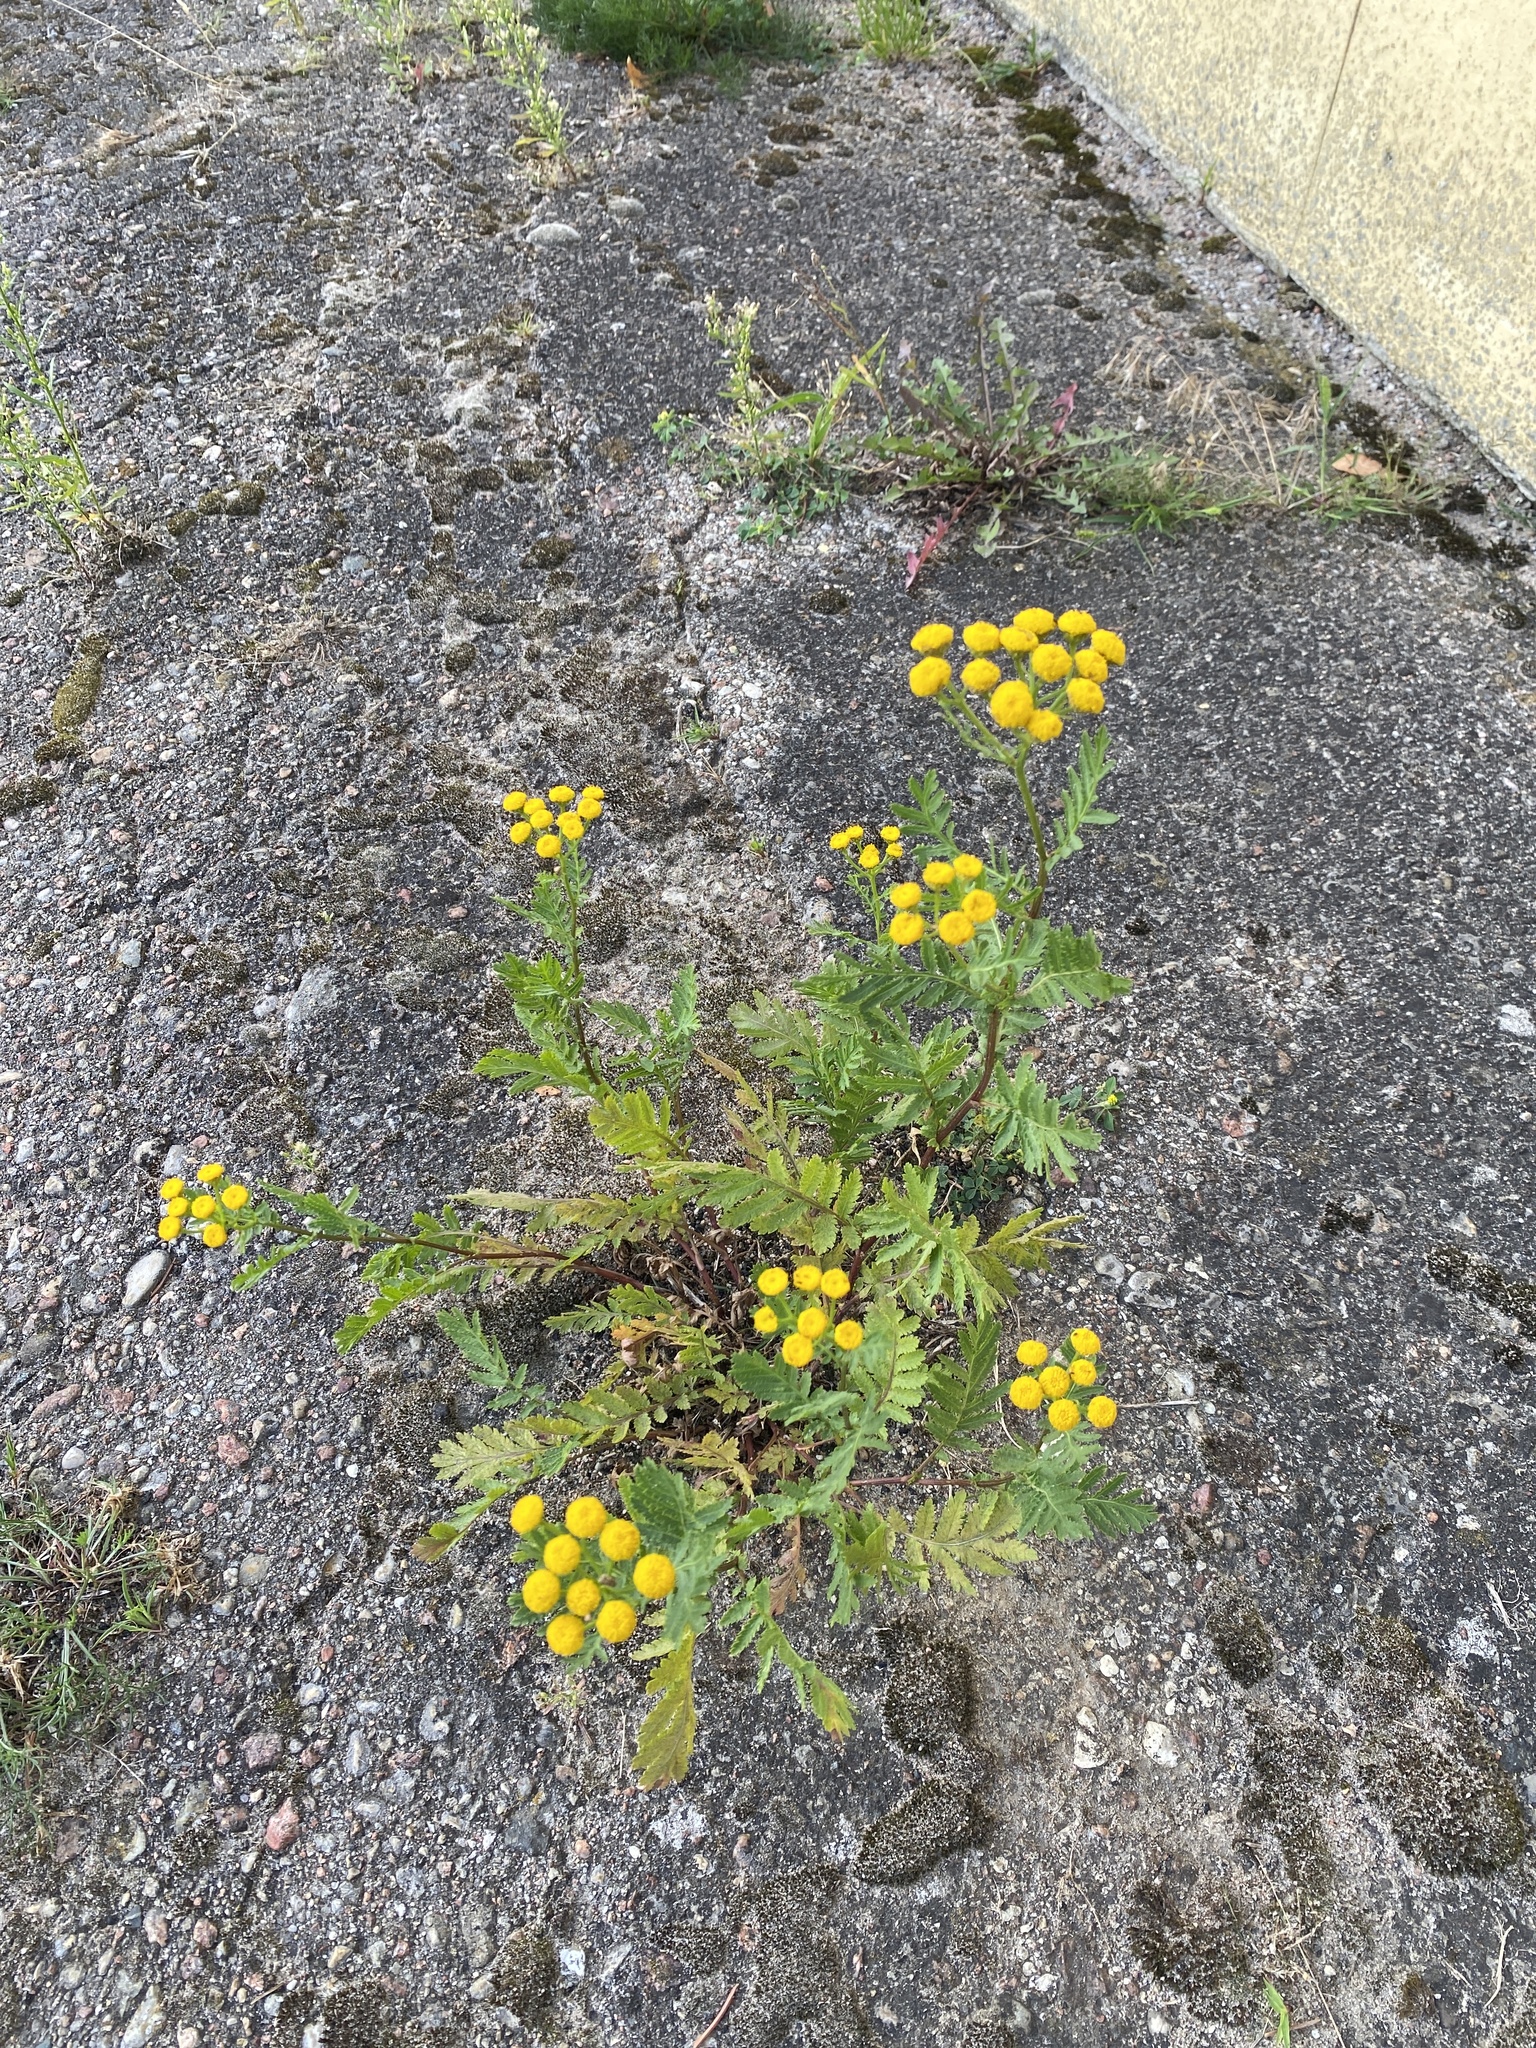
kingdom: Plantae
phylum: Tracheophyta
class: Magnoliopsida
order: Asterales
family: Asteraceae
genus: Tanacetum
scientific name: Tanacetum vulgare
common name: Common tansy
